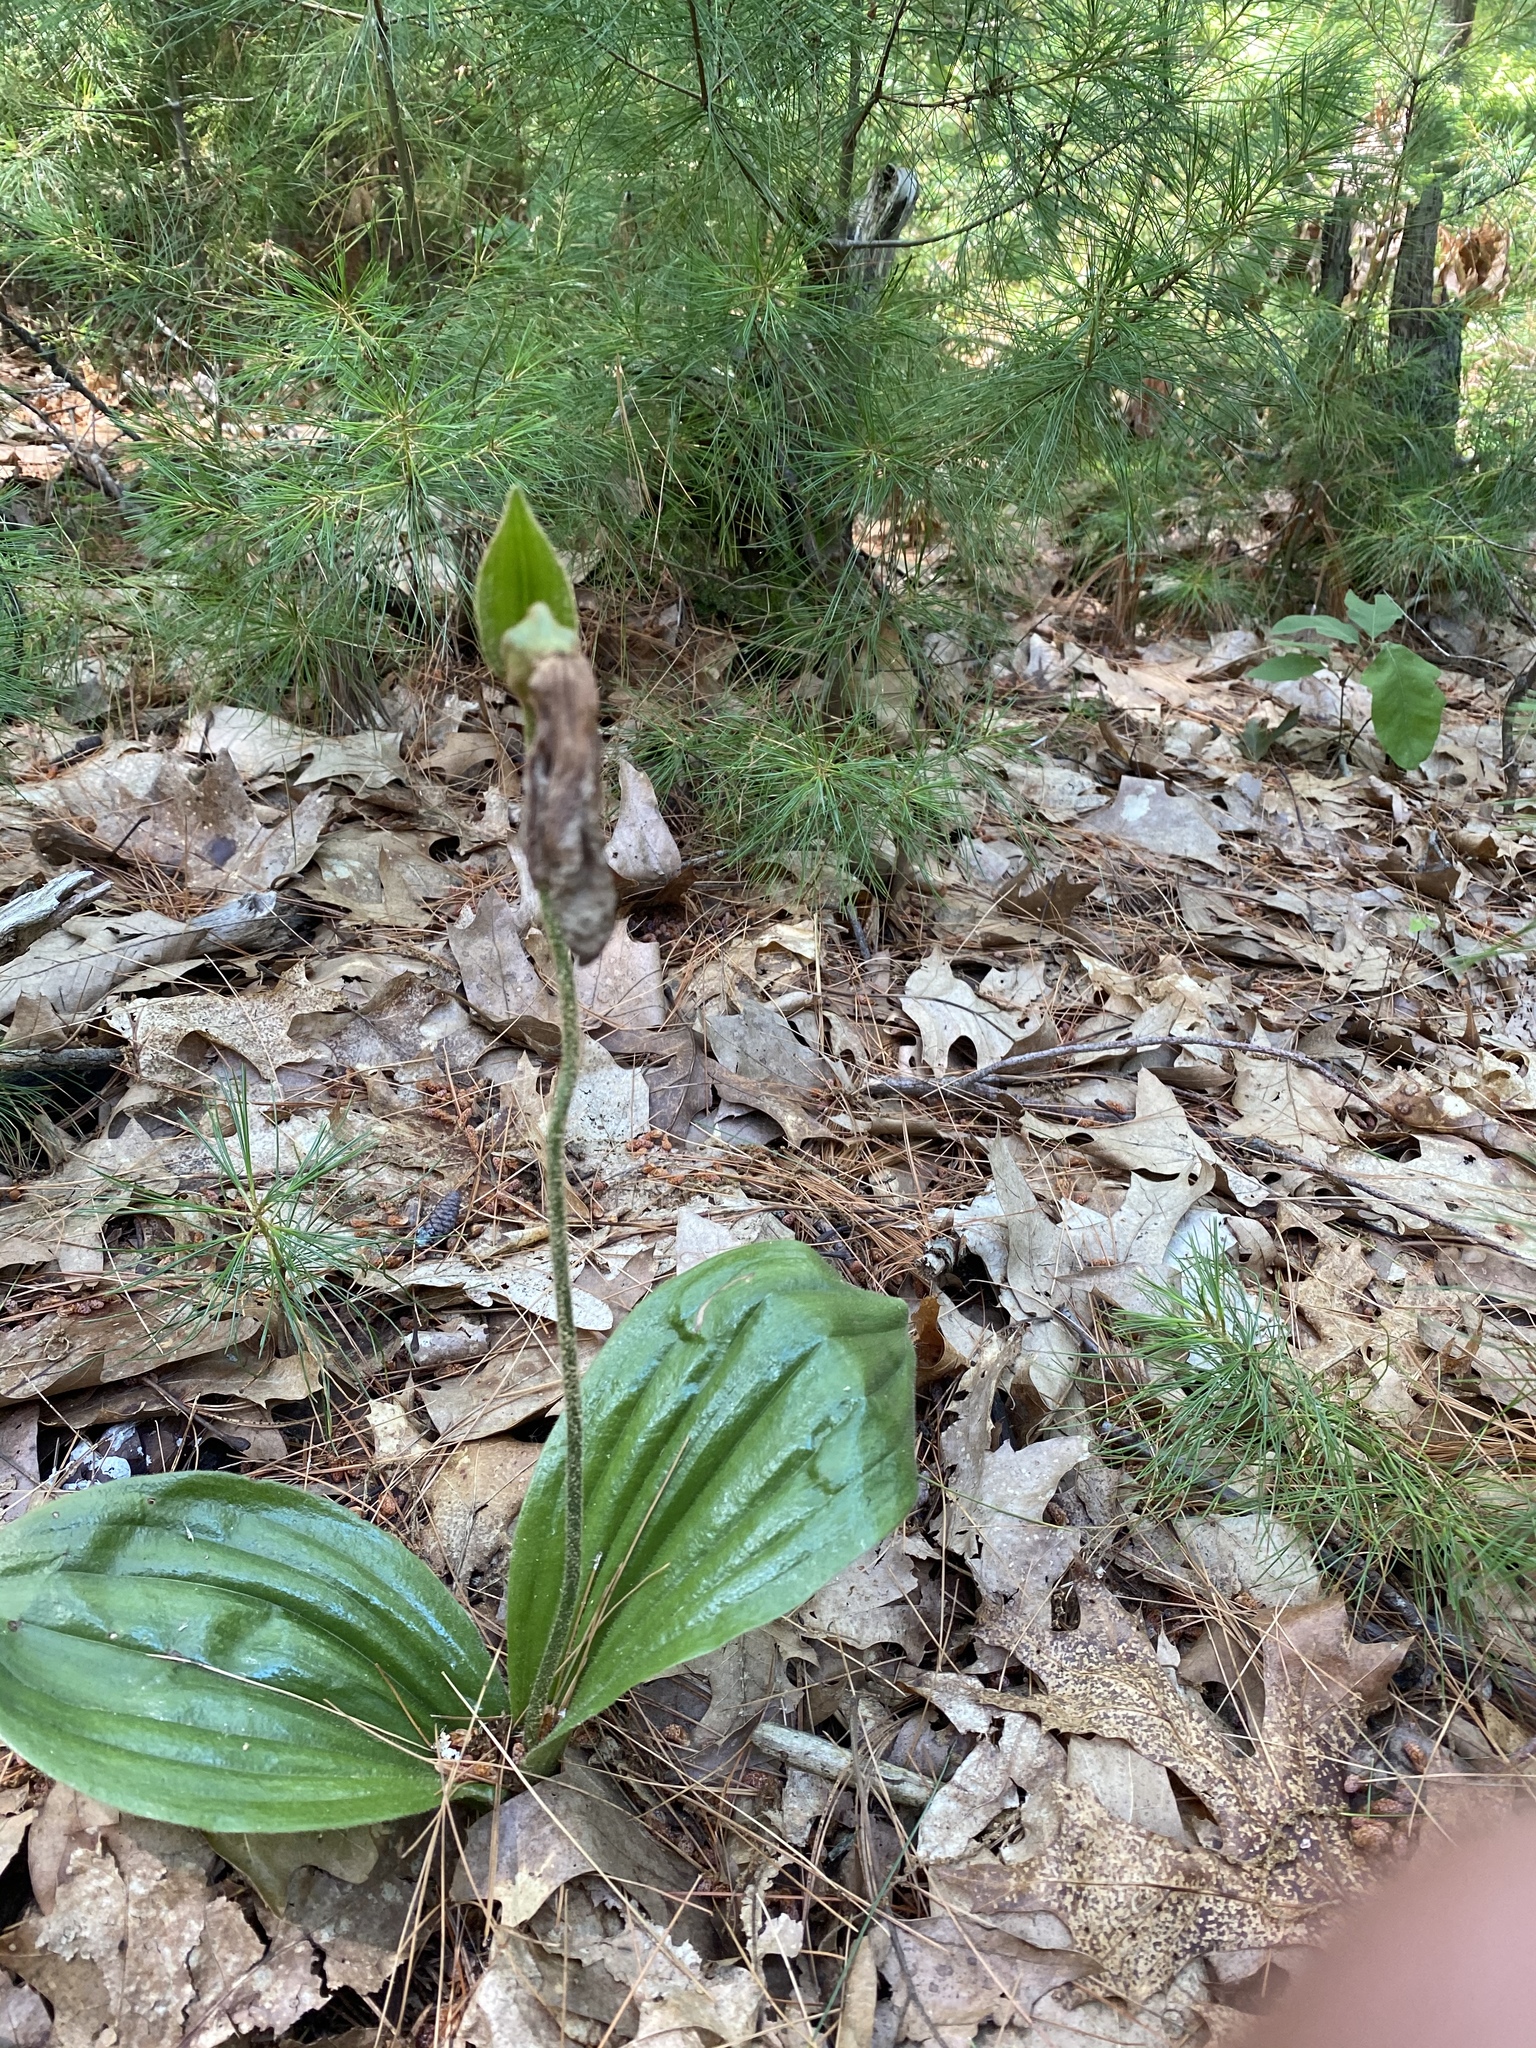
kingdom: Plantae
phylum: Tracheophyta
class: Liliopsida
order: Asparagales
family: Orchidaceae
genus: Cypripedium
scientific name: Cypripedium acaule
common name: Pink lady's-slipper
